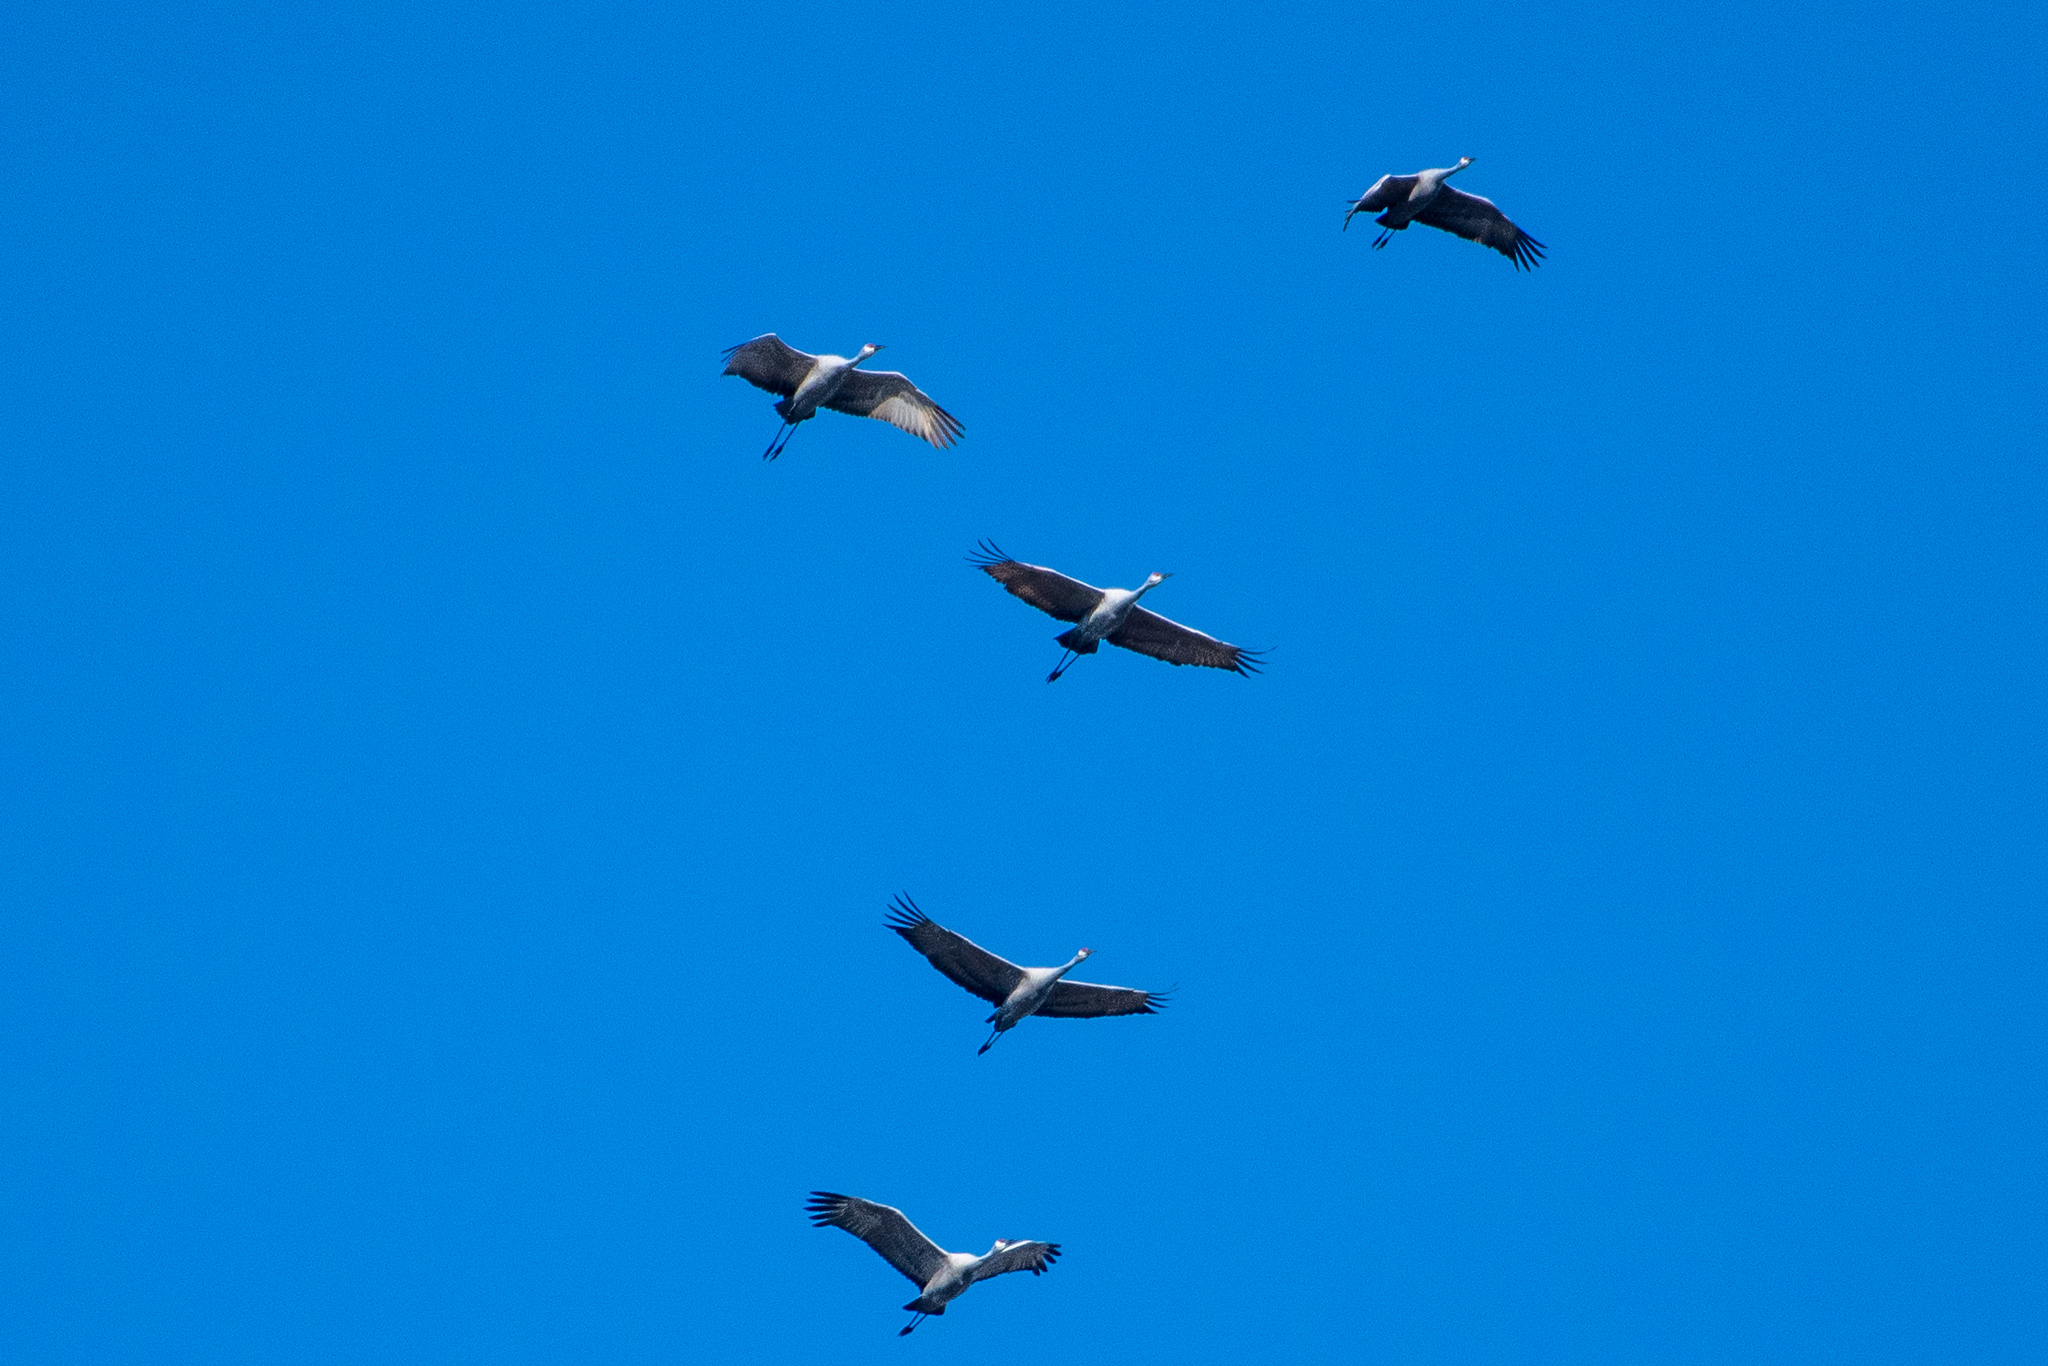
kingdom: Animalia
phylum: Chordata
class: Aves
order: Gruiformes
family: Gruidae
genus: Grus
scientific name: Grus canadensis
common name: Sandhill crane
